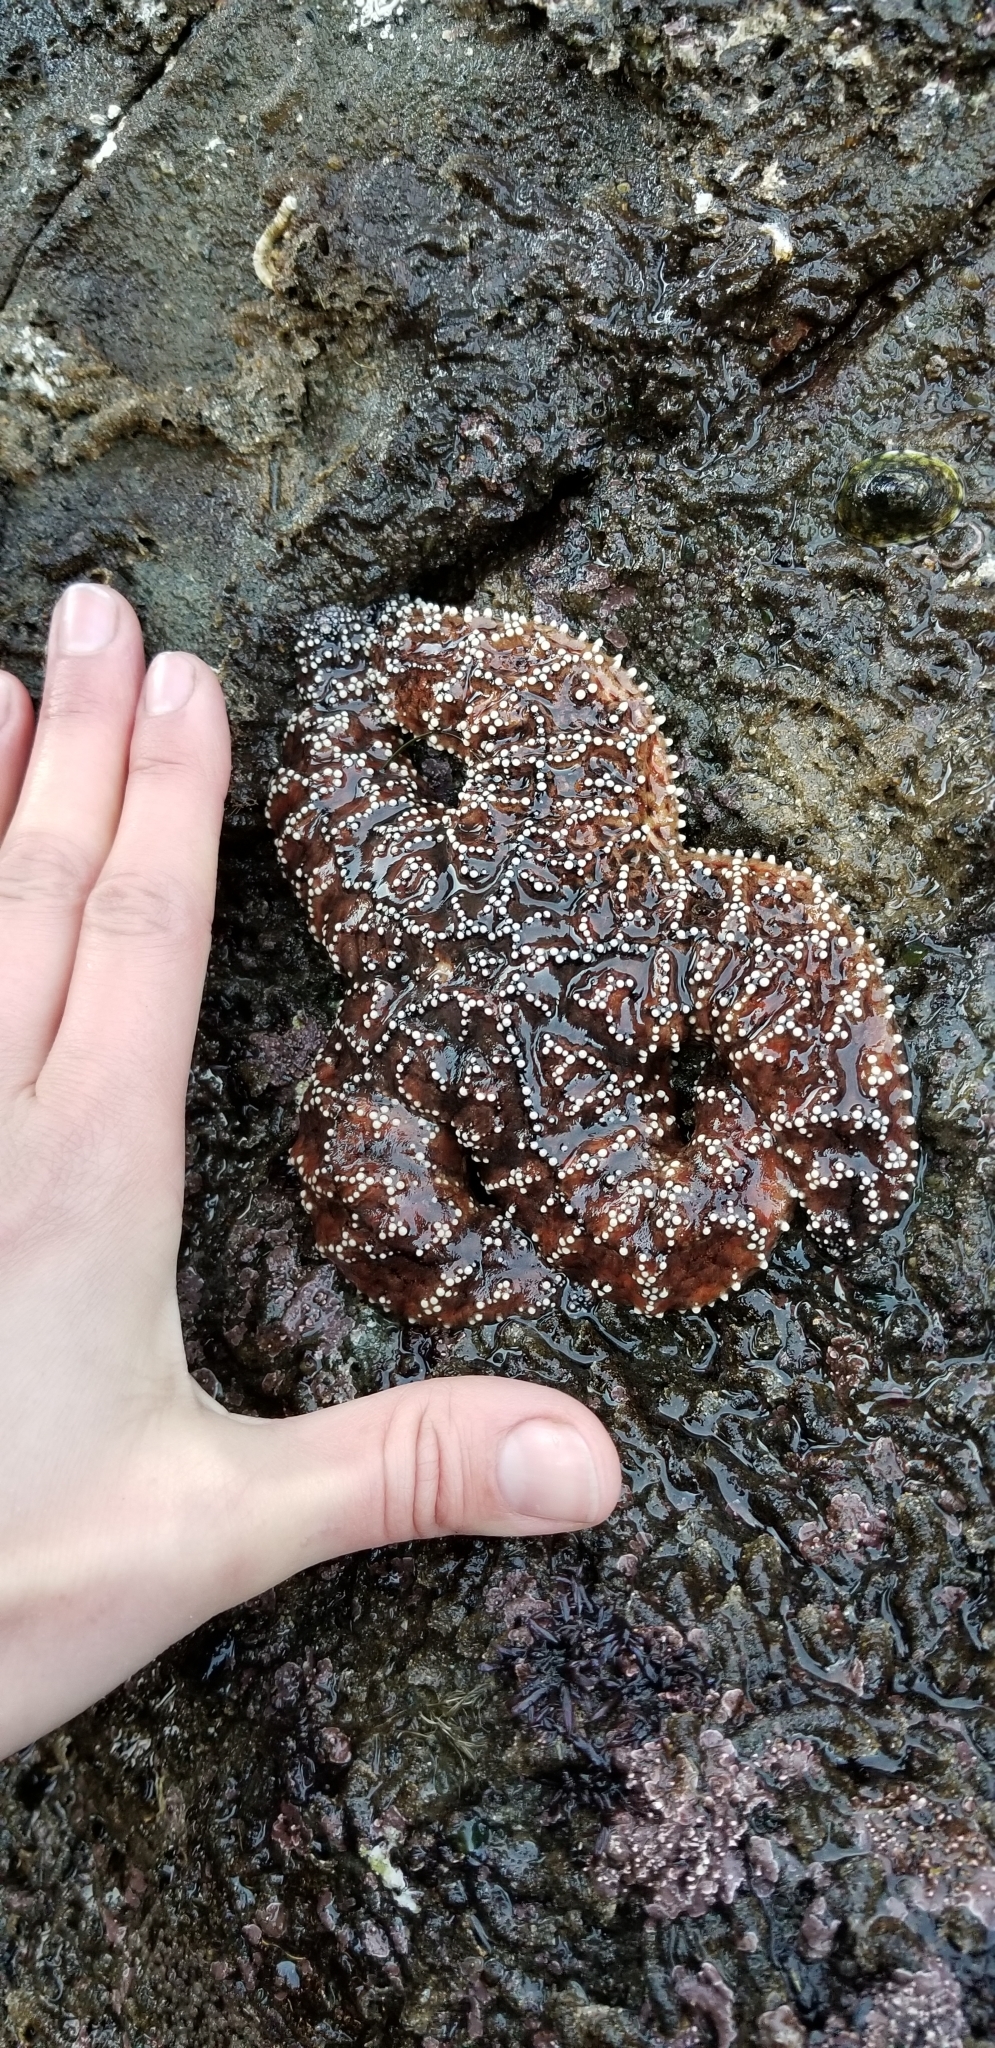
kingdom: Animalia
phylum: Echinodermata
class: Asteroidea
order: Forcipulatida
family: Asteriidae
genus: Pisaster
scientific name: Pisaster ochraceus
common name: Ochre stars
